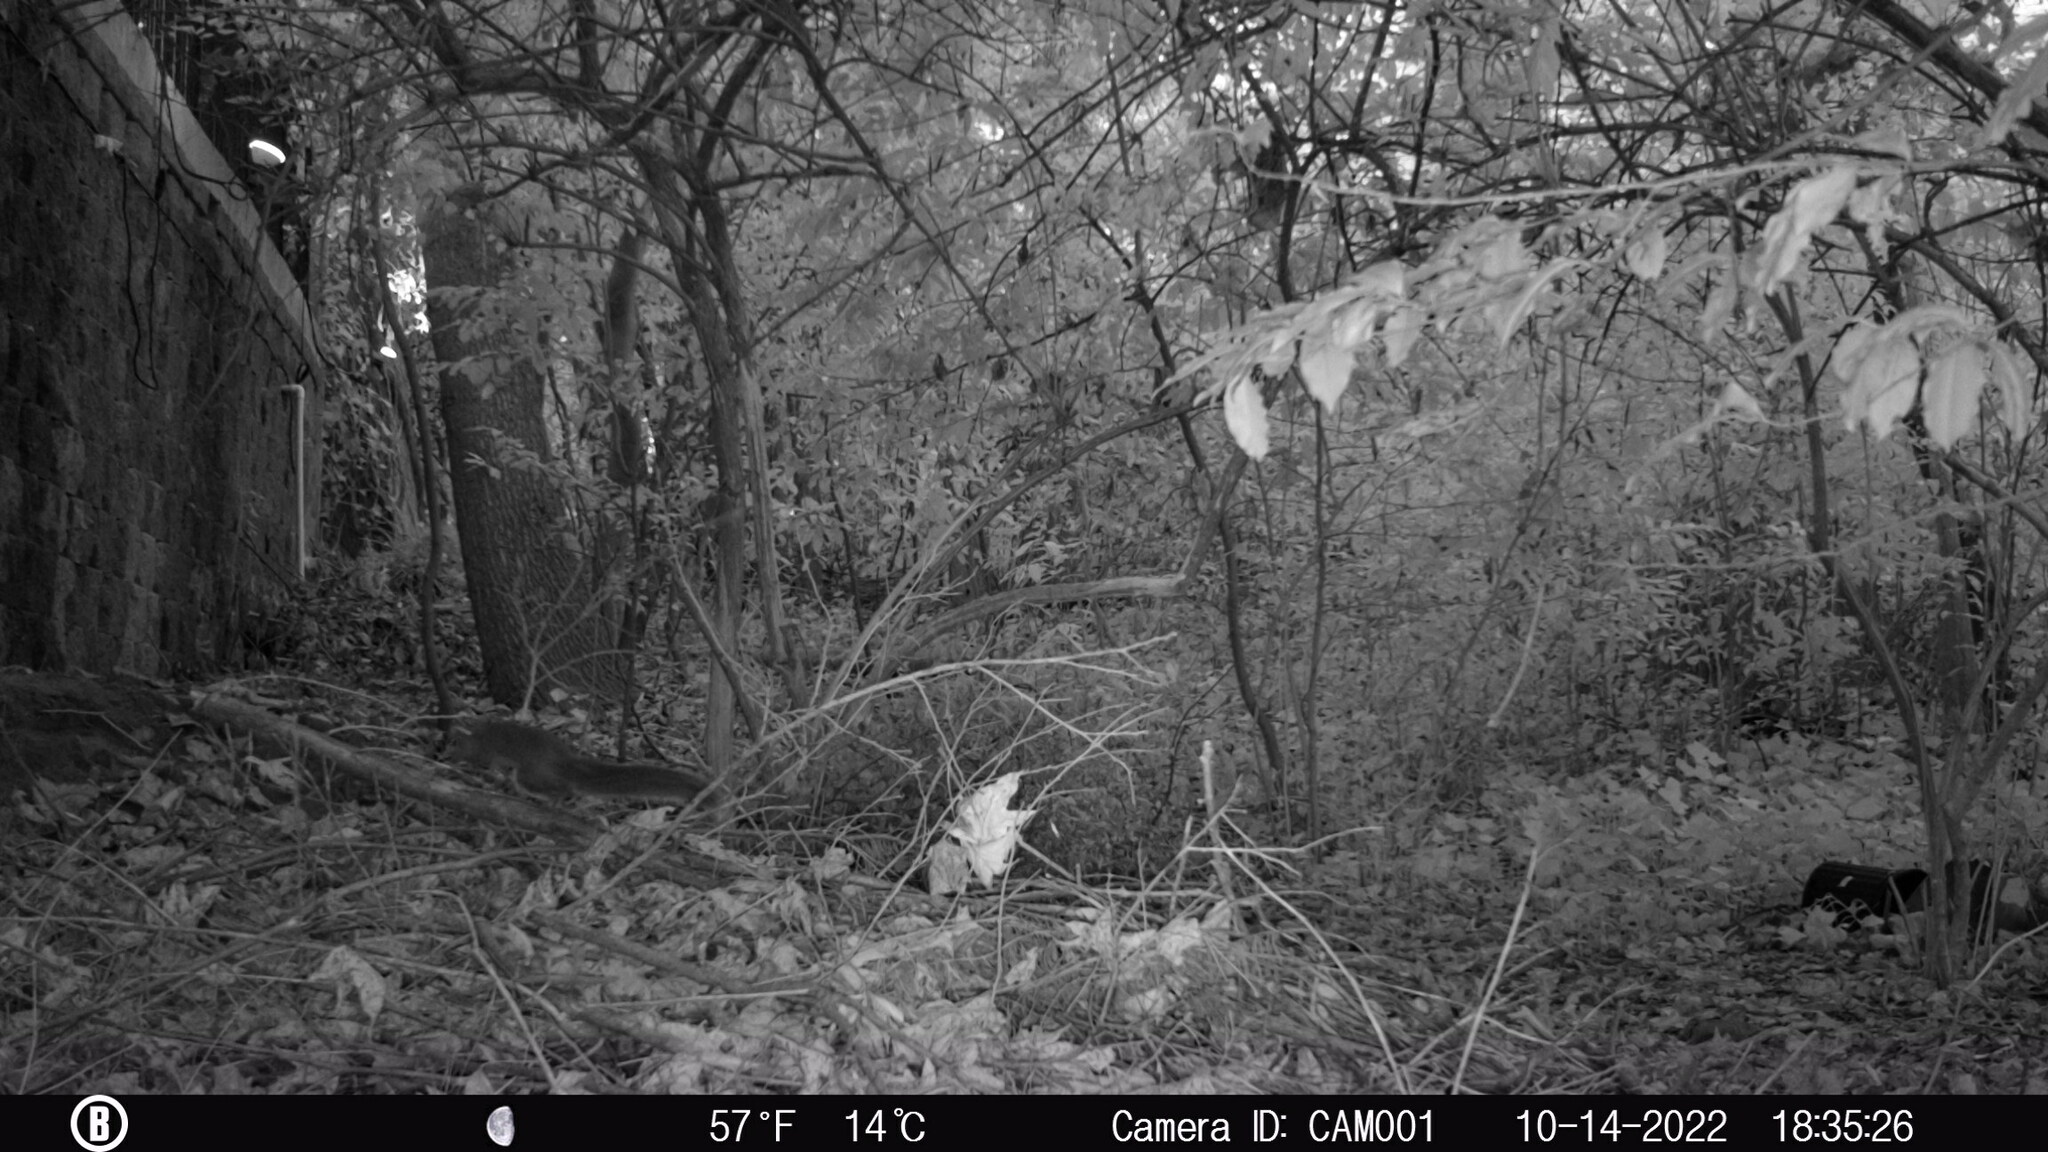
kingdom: Animalia
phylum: Chordata
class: Mammalia
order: Rodentia
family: Sciuridae
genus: Sciurus
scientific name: Sciurus carolinensis
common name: Eastern gray squirrel
